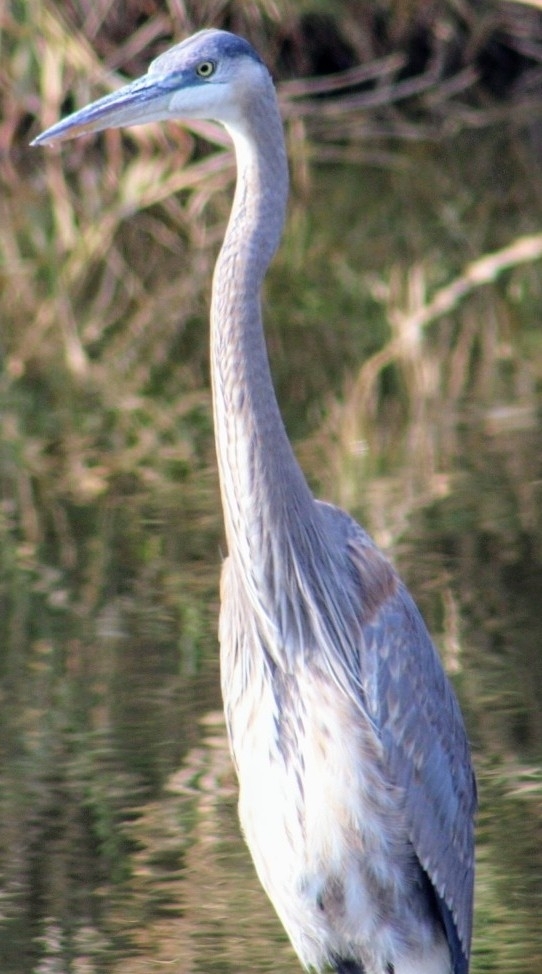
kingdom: Animalia
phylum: Chordata
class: Aves
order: Pelecaniformes
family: Ardeidae
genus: Ardea
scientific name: Ardea herodias
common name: Great blue heron
